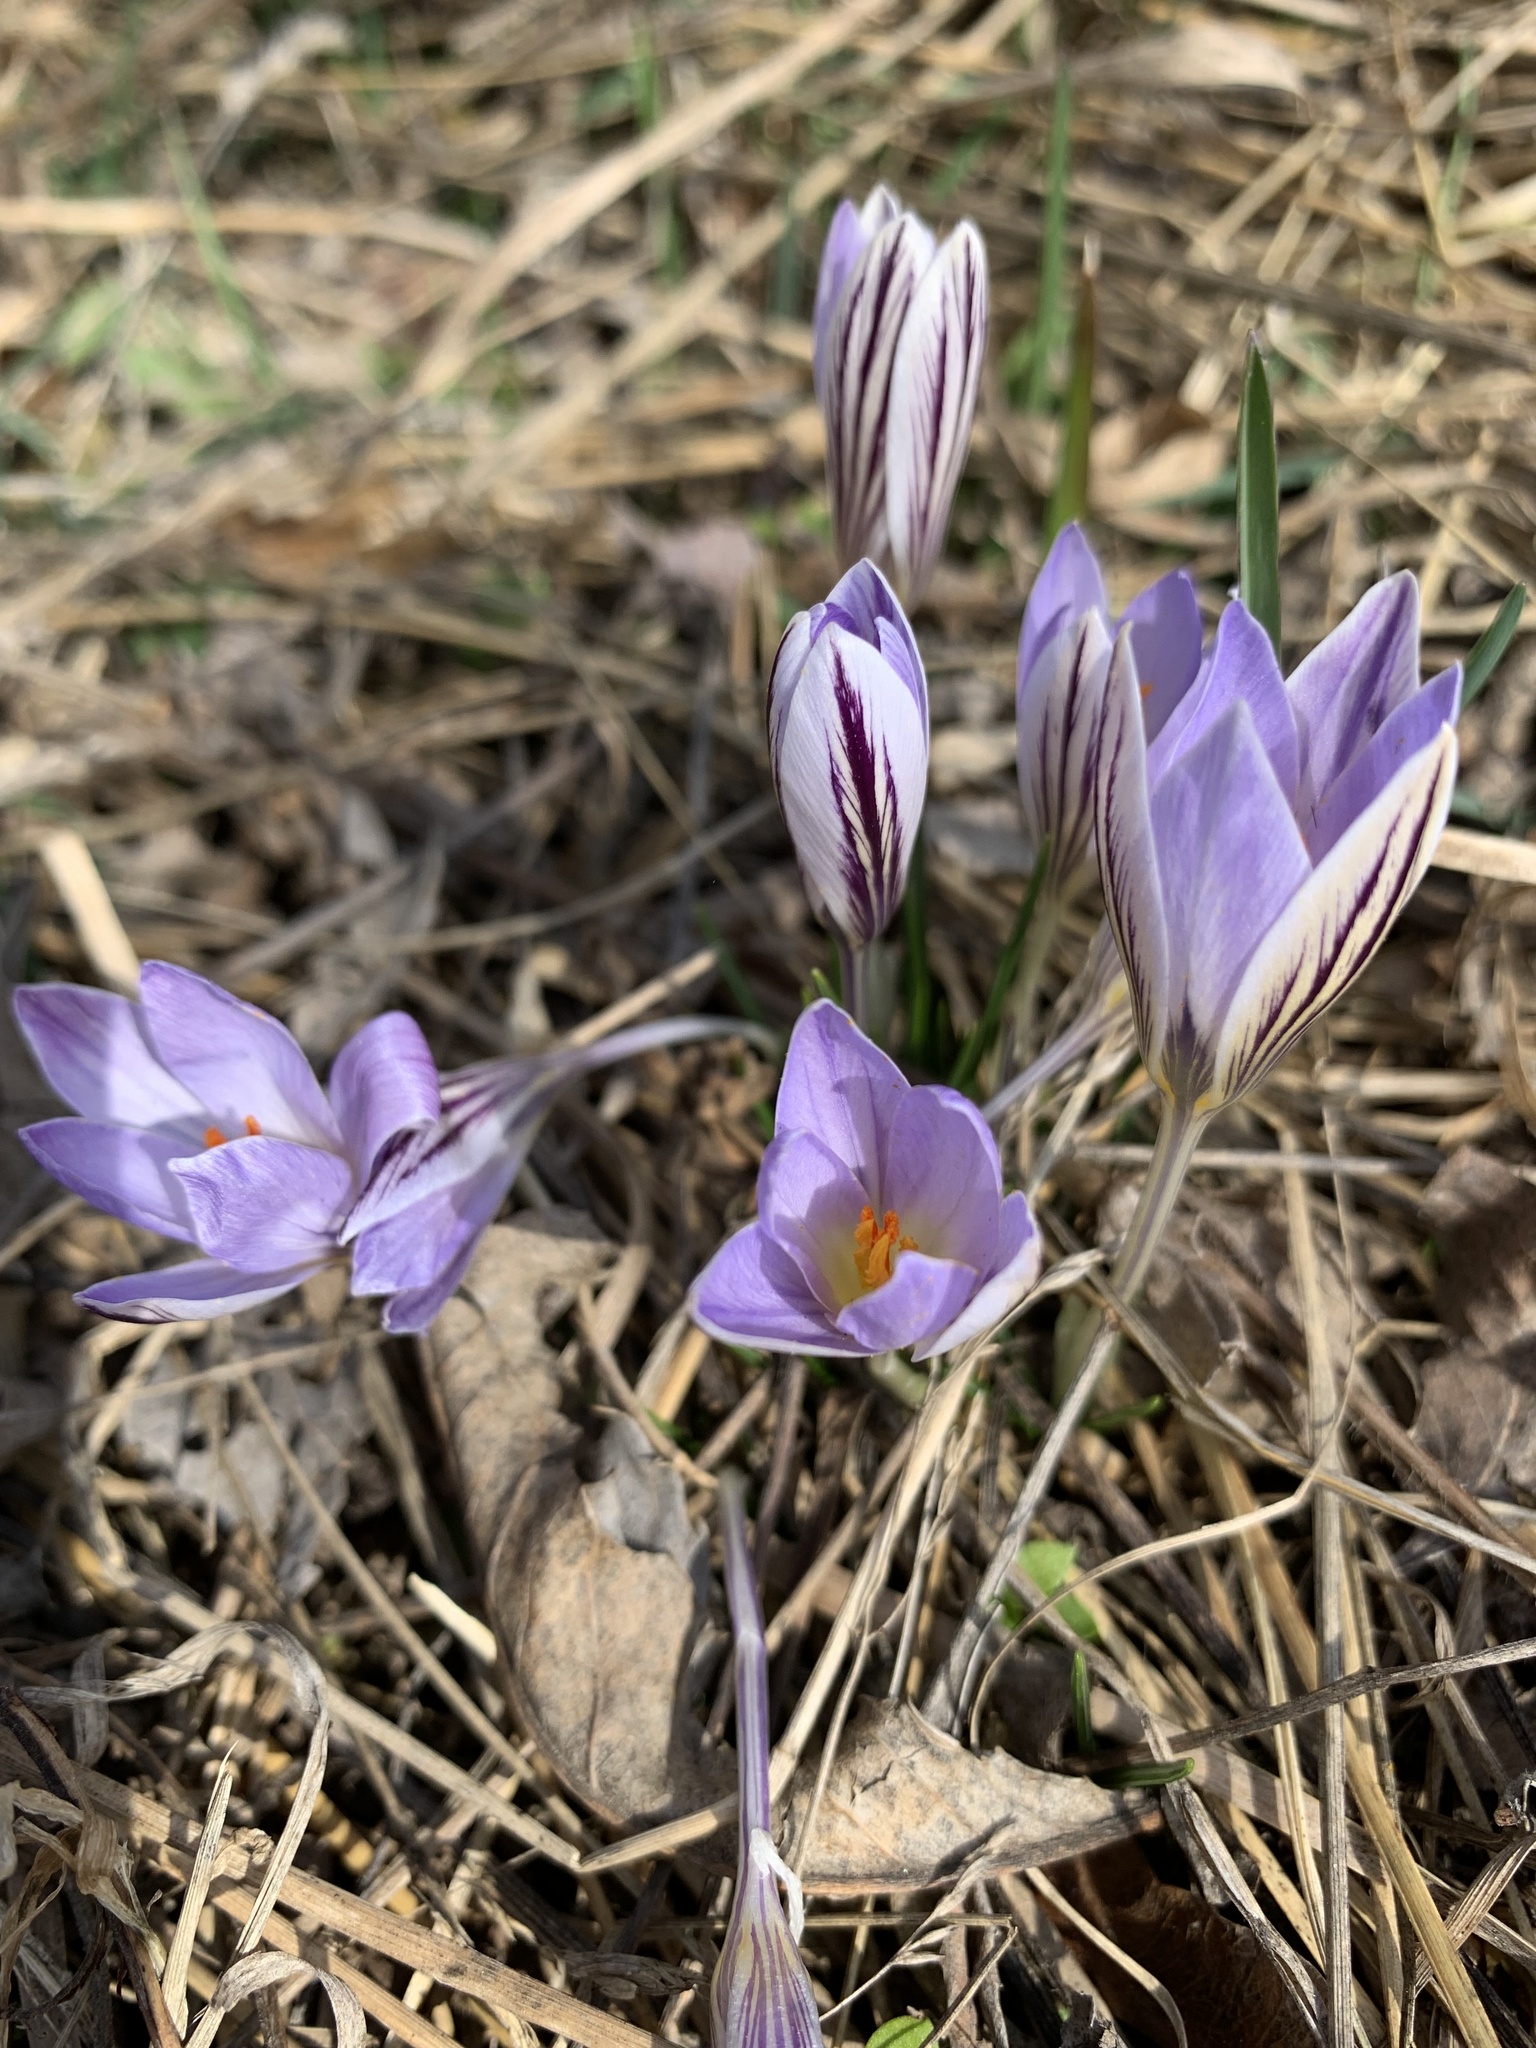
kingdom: Plantae
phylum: Tracheophyta
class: Liliopsida
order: Asparagales
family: Iridaceae
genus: Crocus
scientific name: Crocus reticulatus
